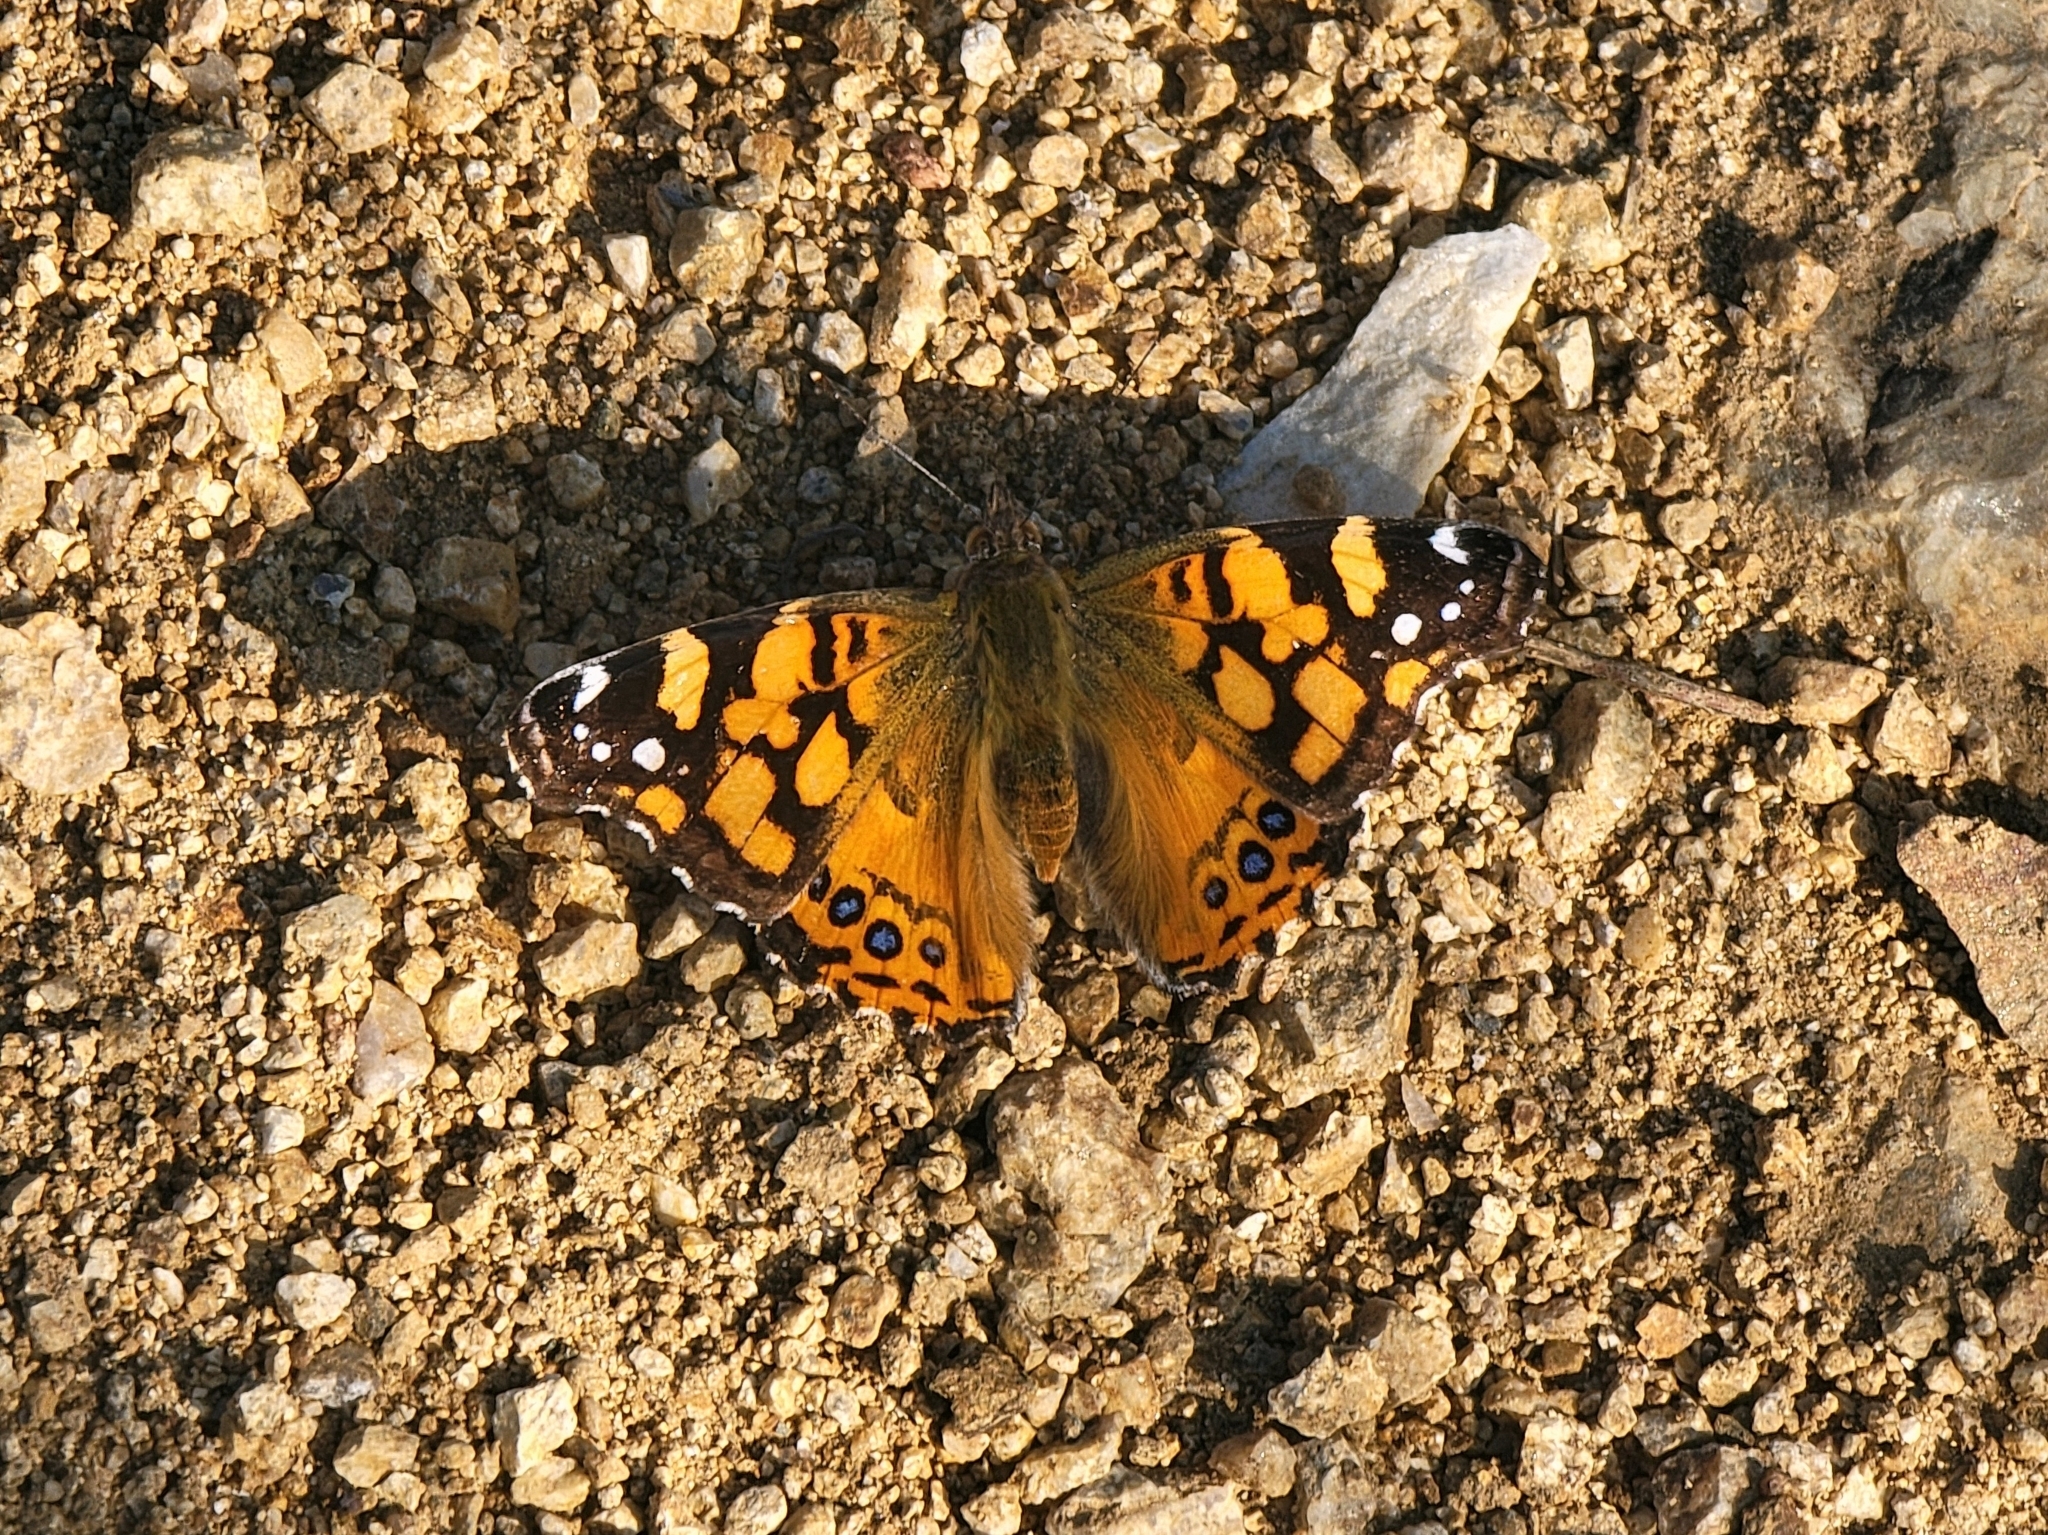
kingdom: Animalia
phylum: Arthropoda
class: Insecta
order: Lepidoptera
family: Nymphalidae
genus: Vanessa
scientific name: Vanessa annabella
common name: West coast lady
